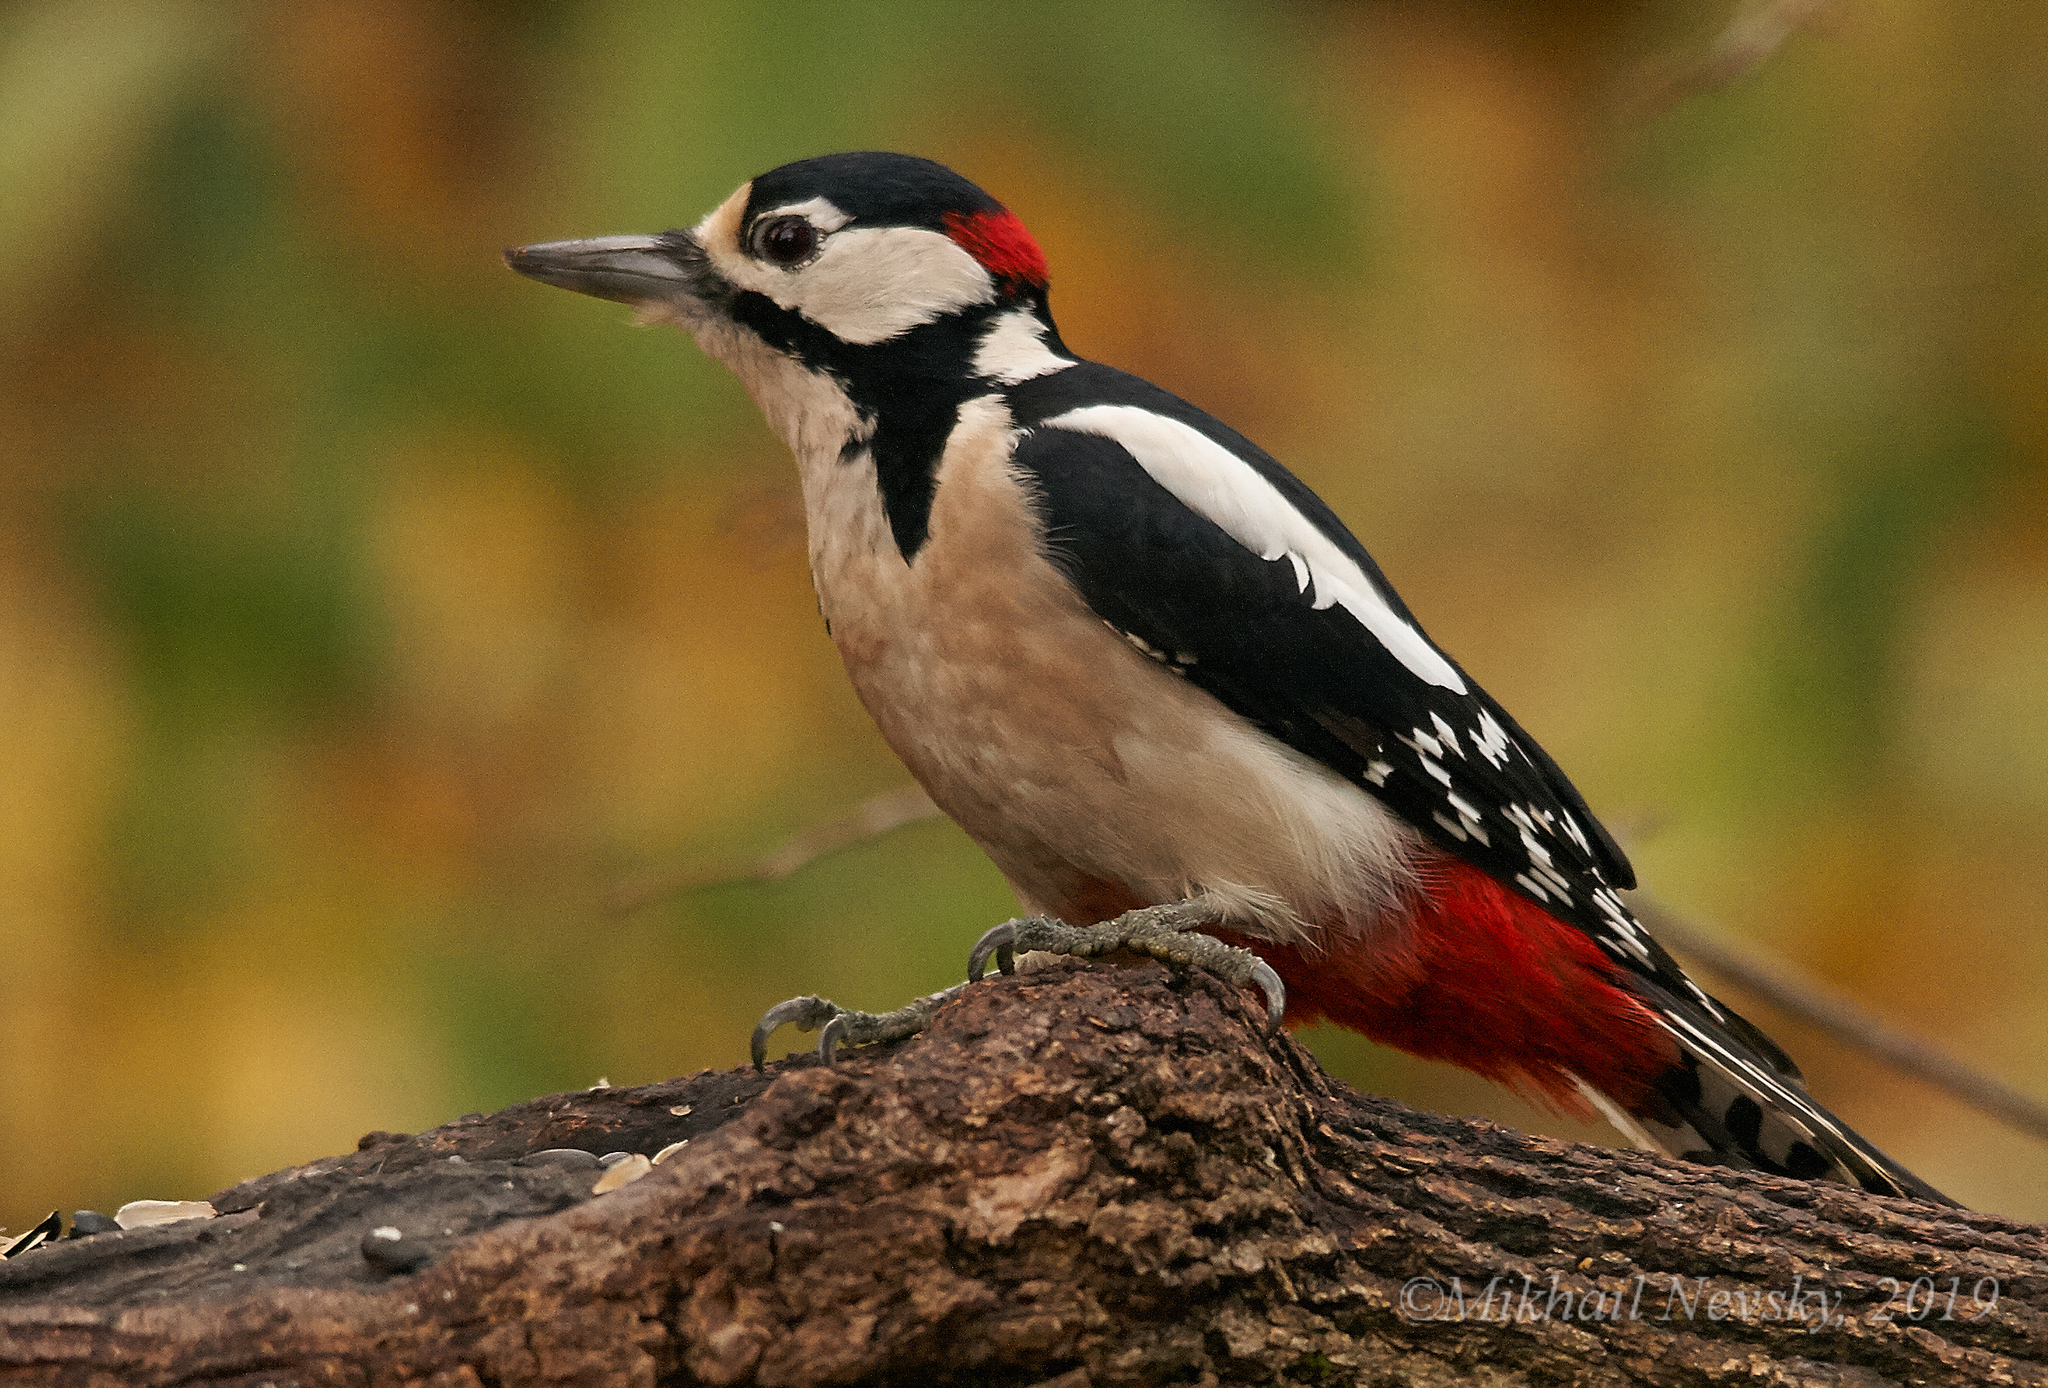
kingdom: Animalia
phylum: Chordata
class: Aves
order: Piciformes
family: Picidae
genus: Dendrocopos
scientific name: Dendrocopos major
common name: Great spotted woodpecker
